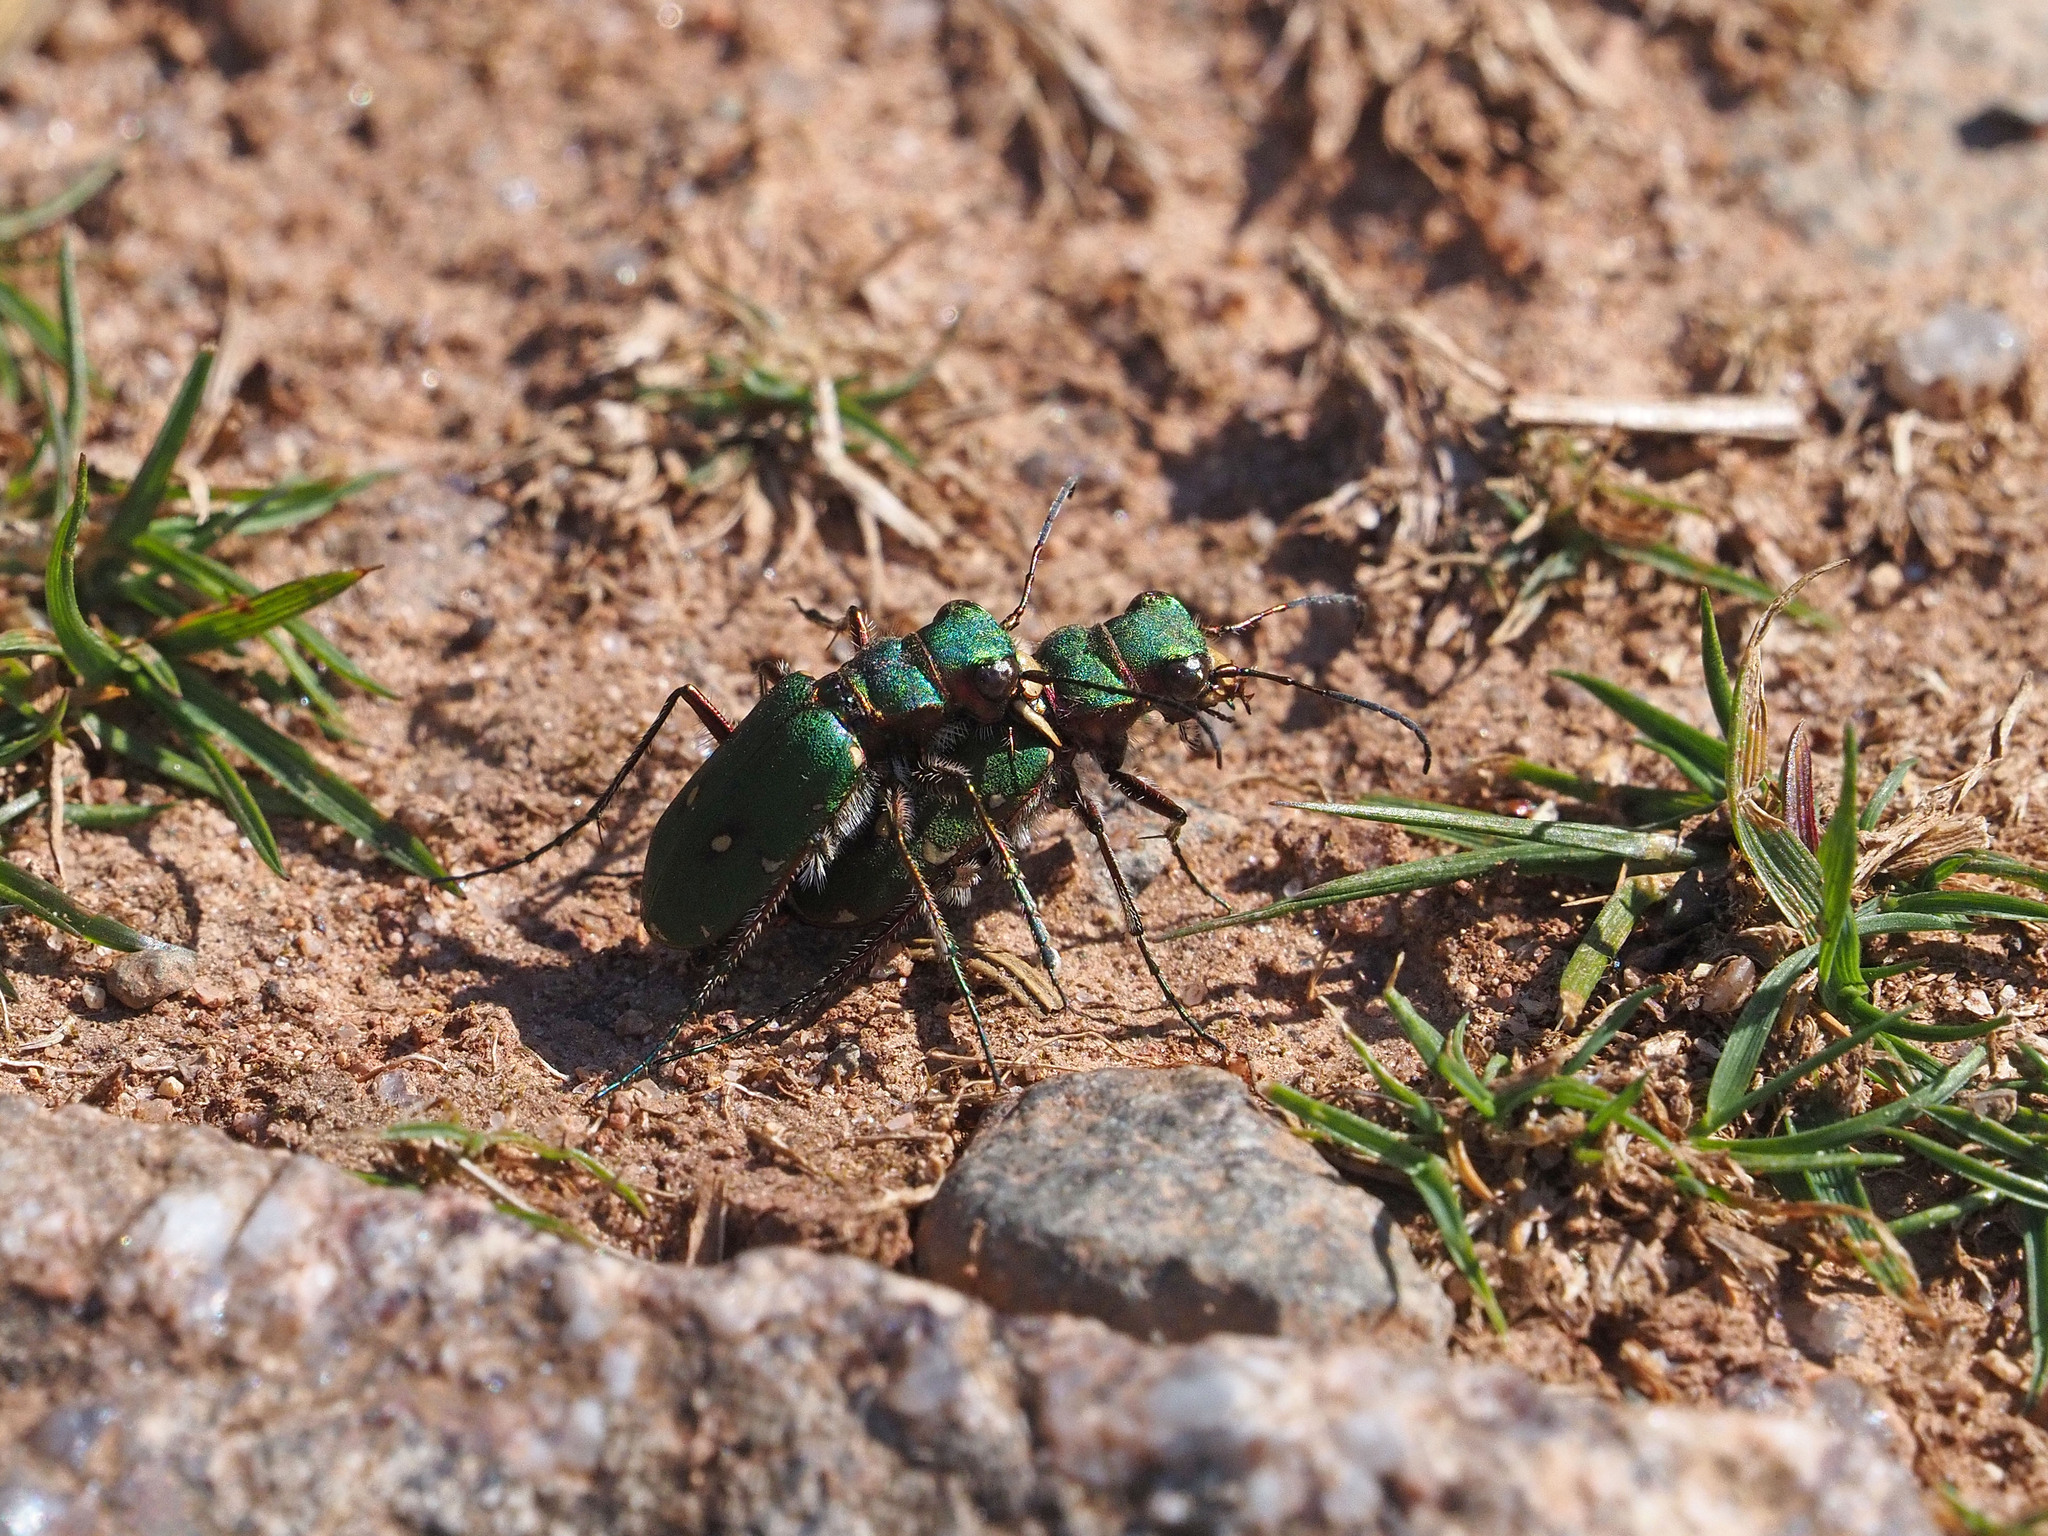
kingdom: Animalia
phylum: Arthropoda
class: Insecta
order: Coleoptera
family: Carabidae
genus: Cicindela
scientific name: Cicindela campestris
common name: Common tiger beetle
